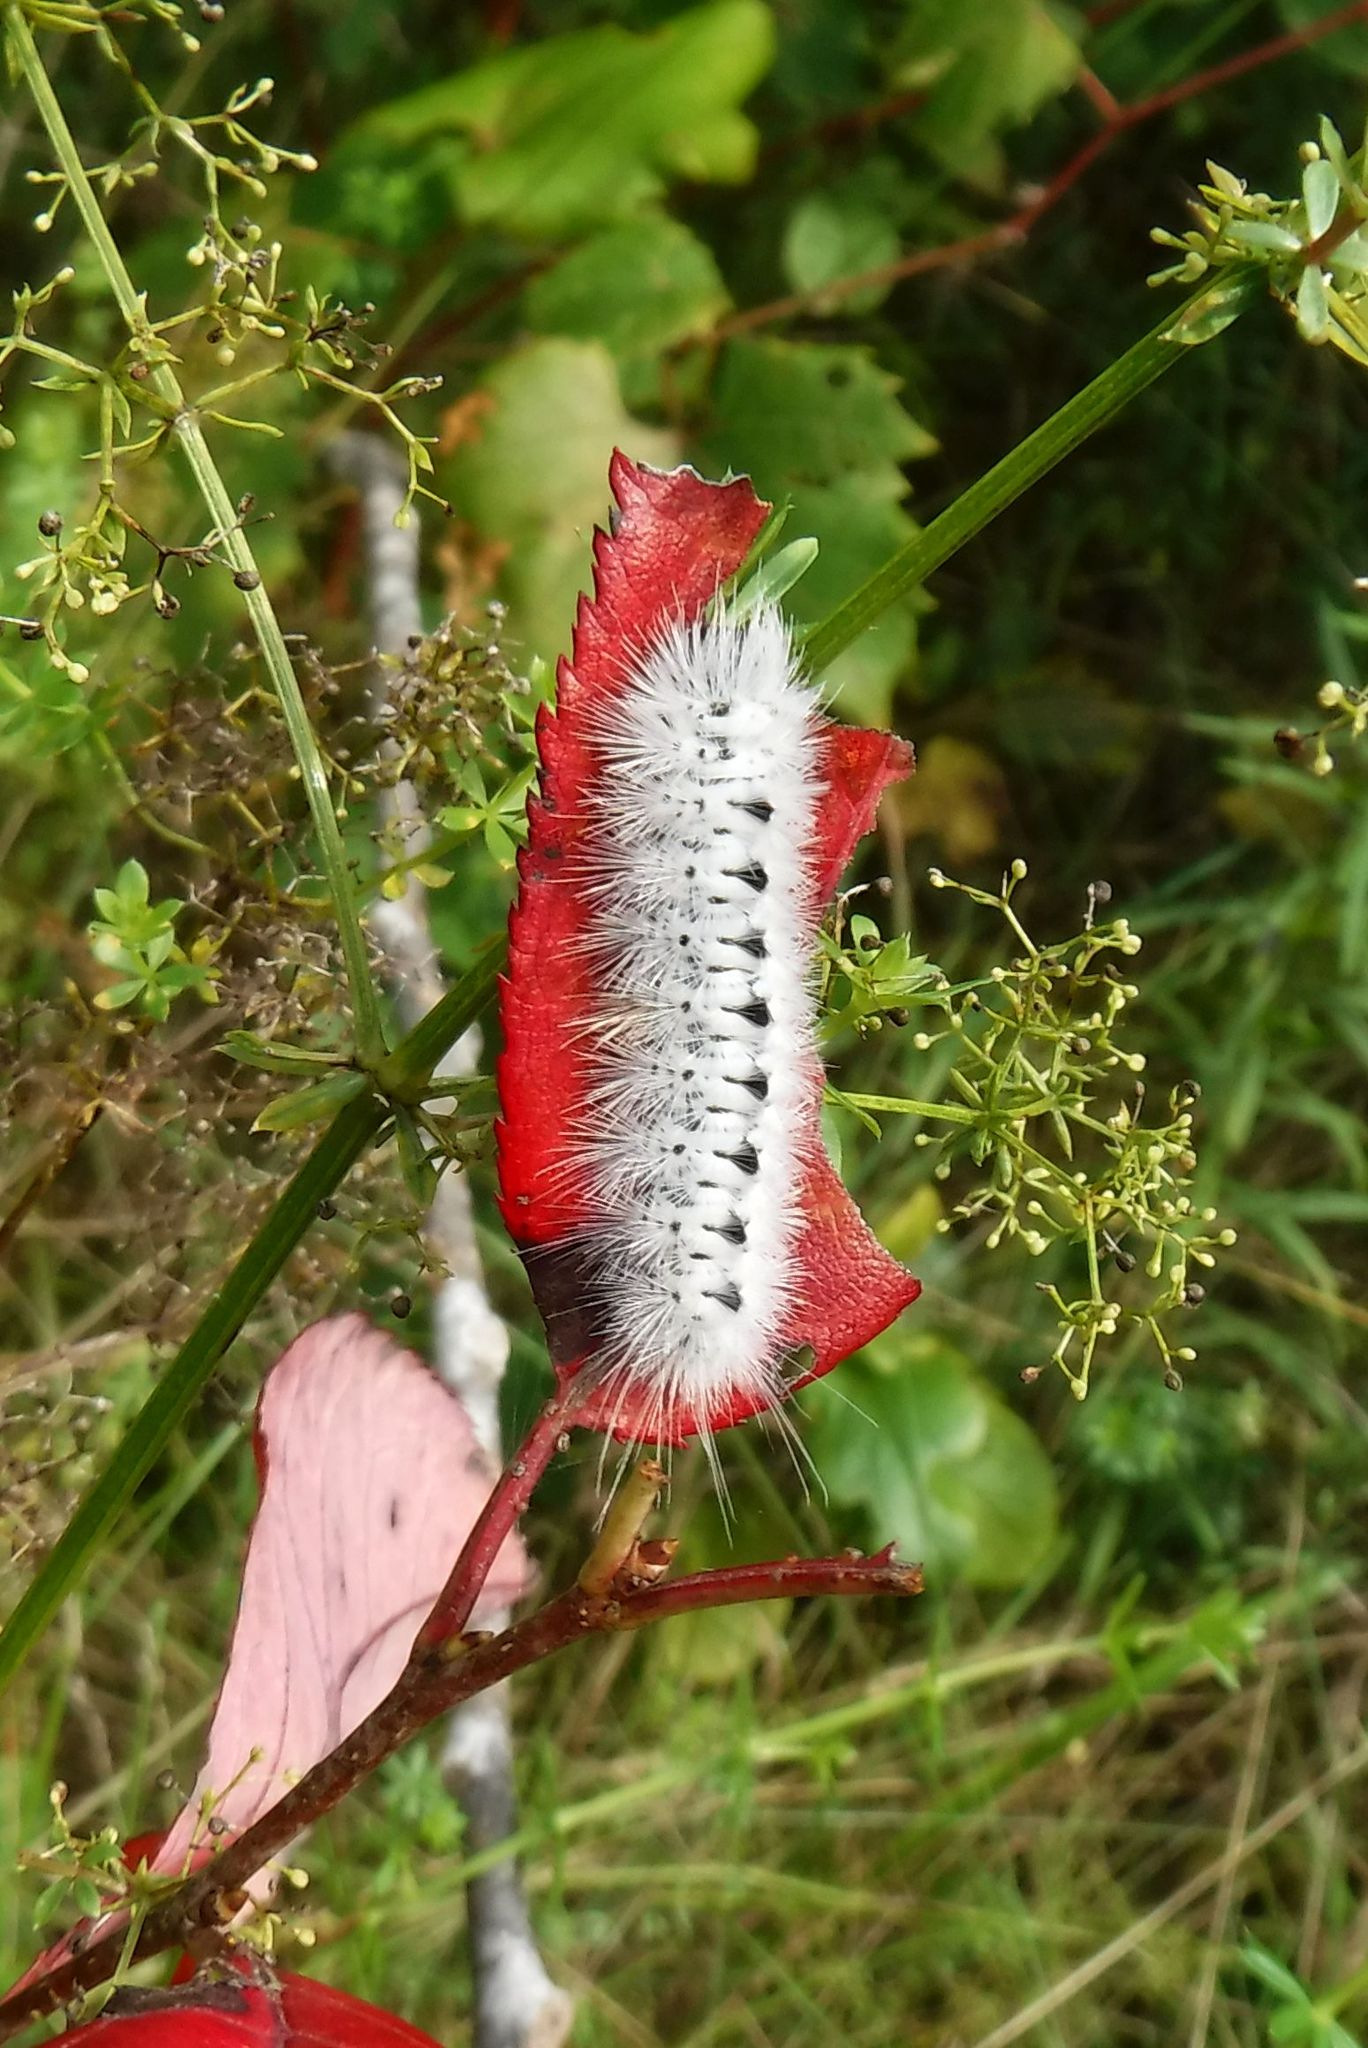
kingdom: Animalia
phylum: Arthropoda
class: Insecta
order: Lepidoptera
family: Erebidae
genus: Lophocampa
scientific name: Lophocampa caryae
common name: Hickory tussock moth
